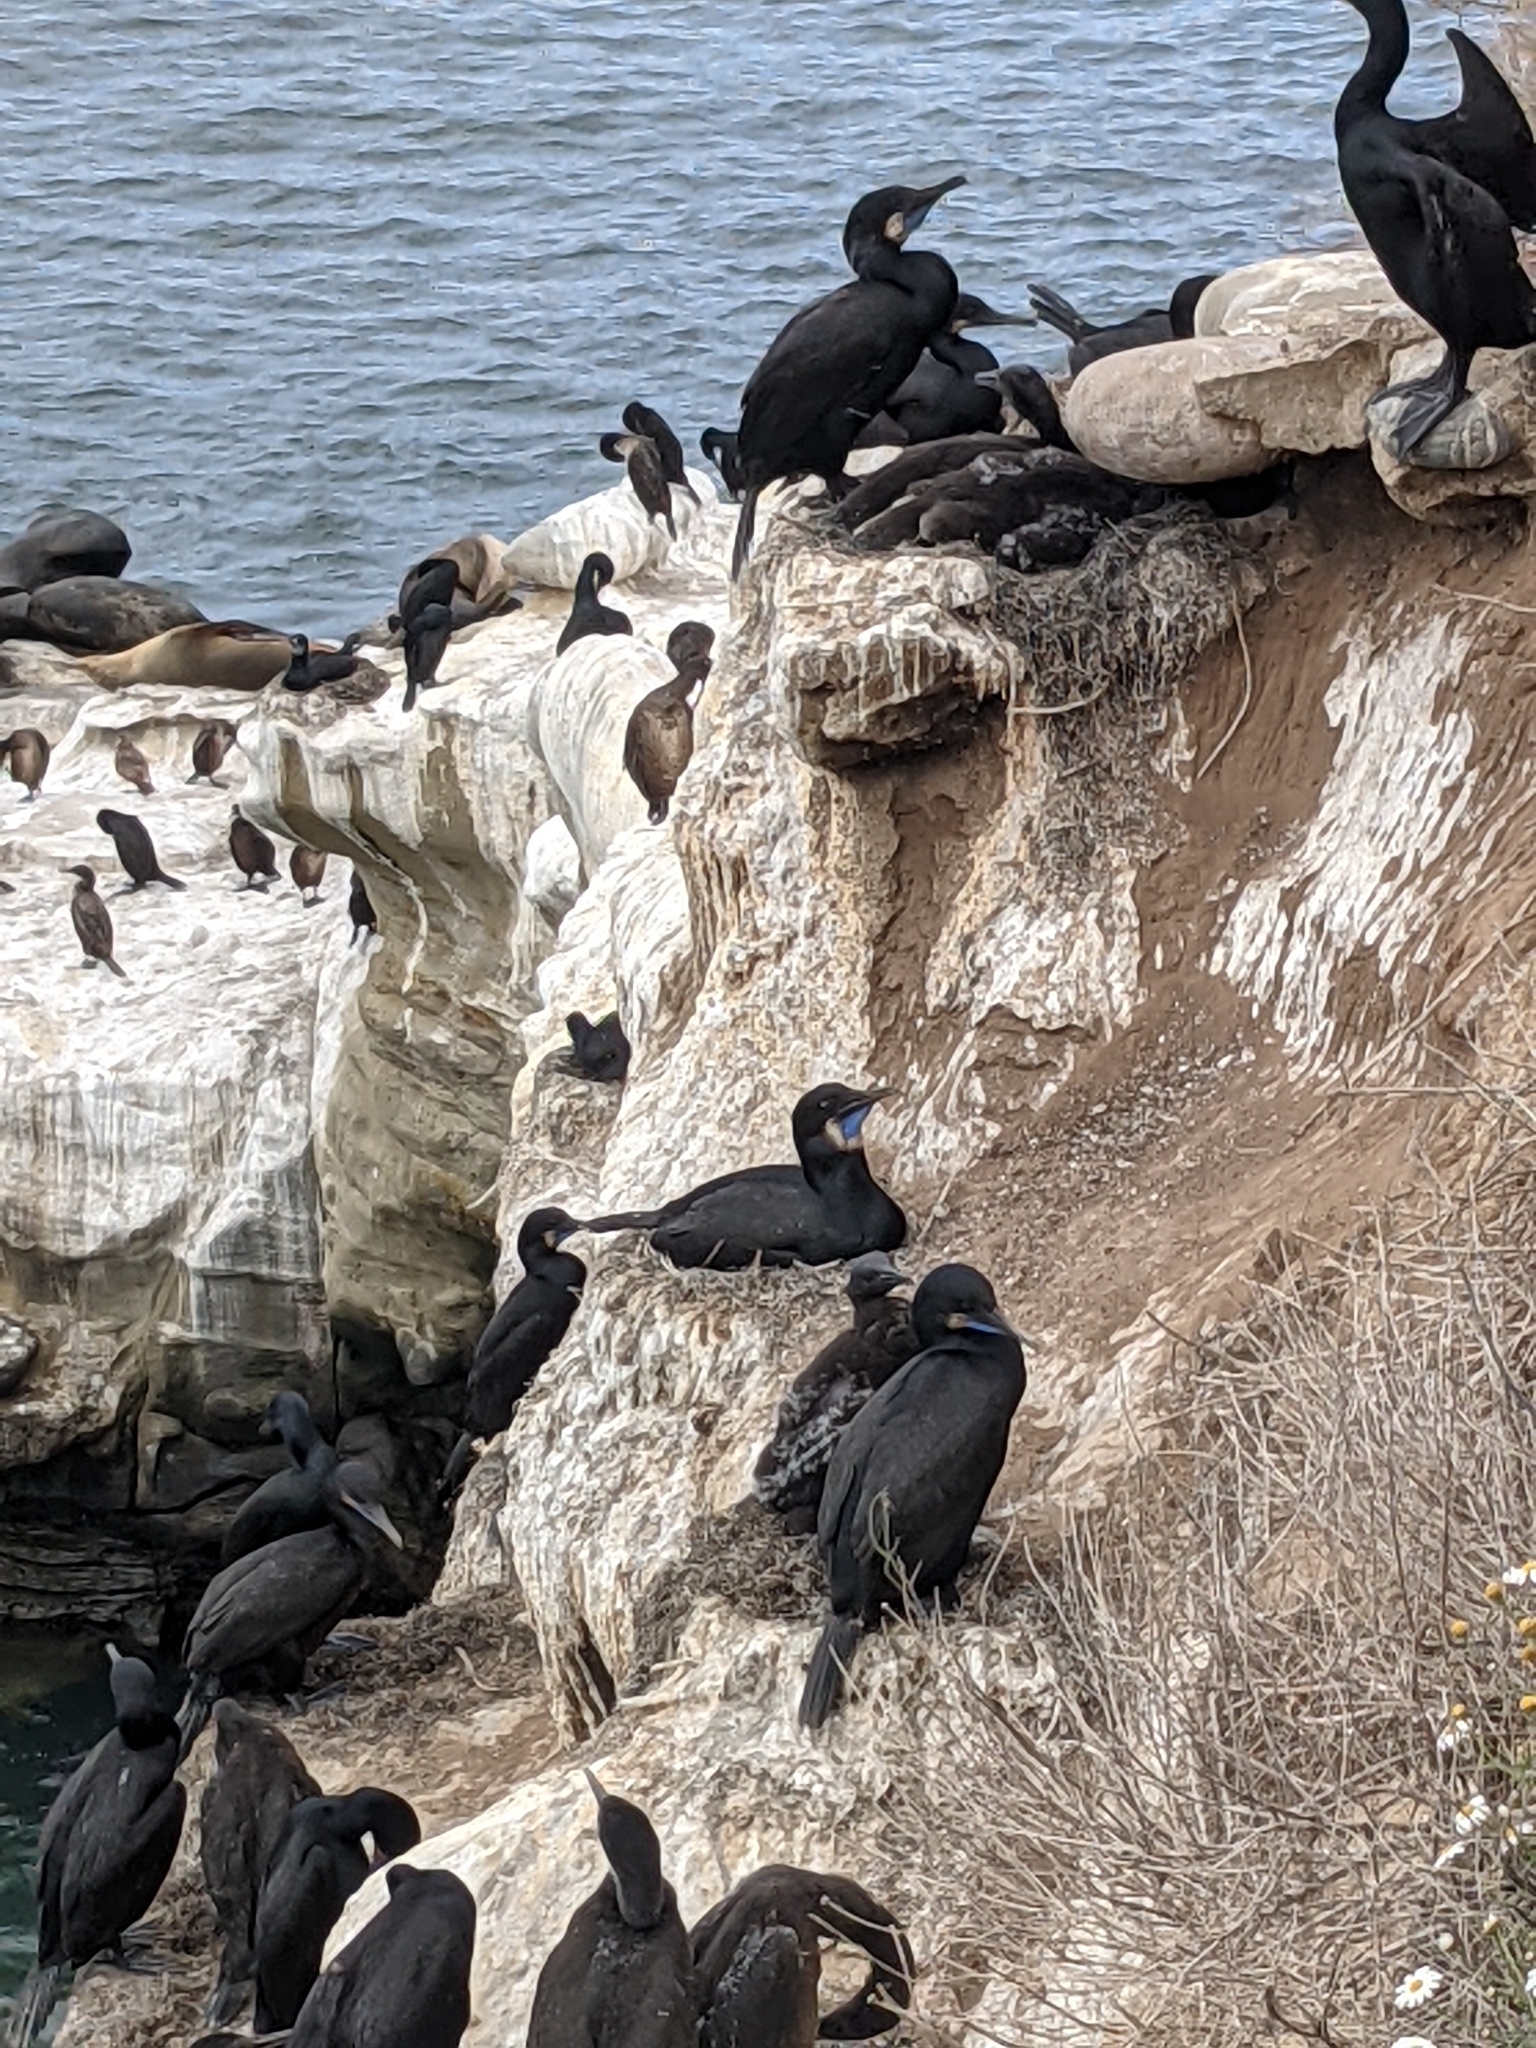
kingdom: Animalia
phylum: Chordata
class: Aves
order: Suliformes
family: Phalacrocoracidae
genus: Urile
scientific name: Urile penicillatus
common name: Brandt's cormorant
